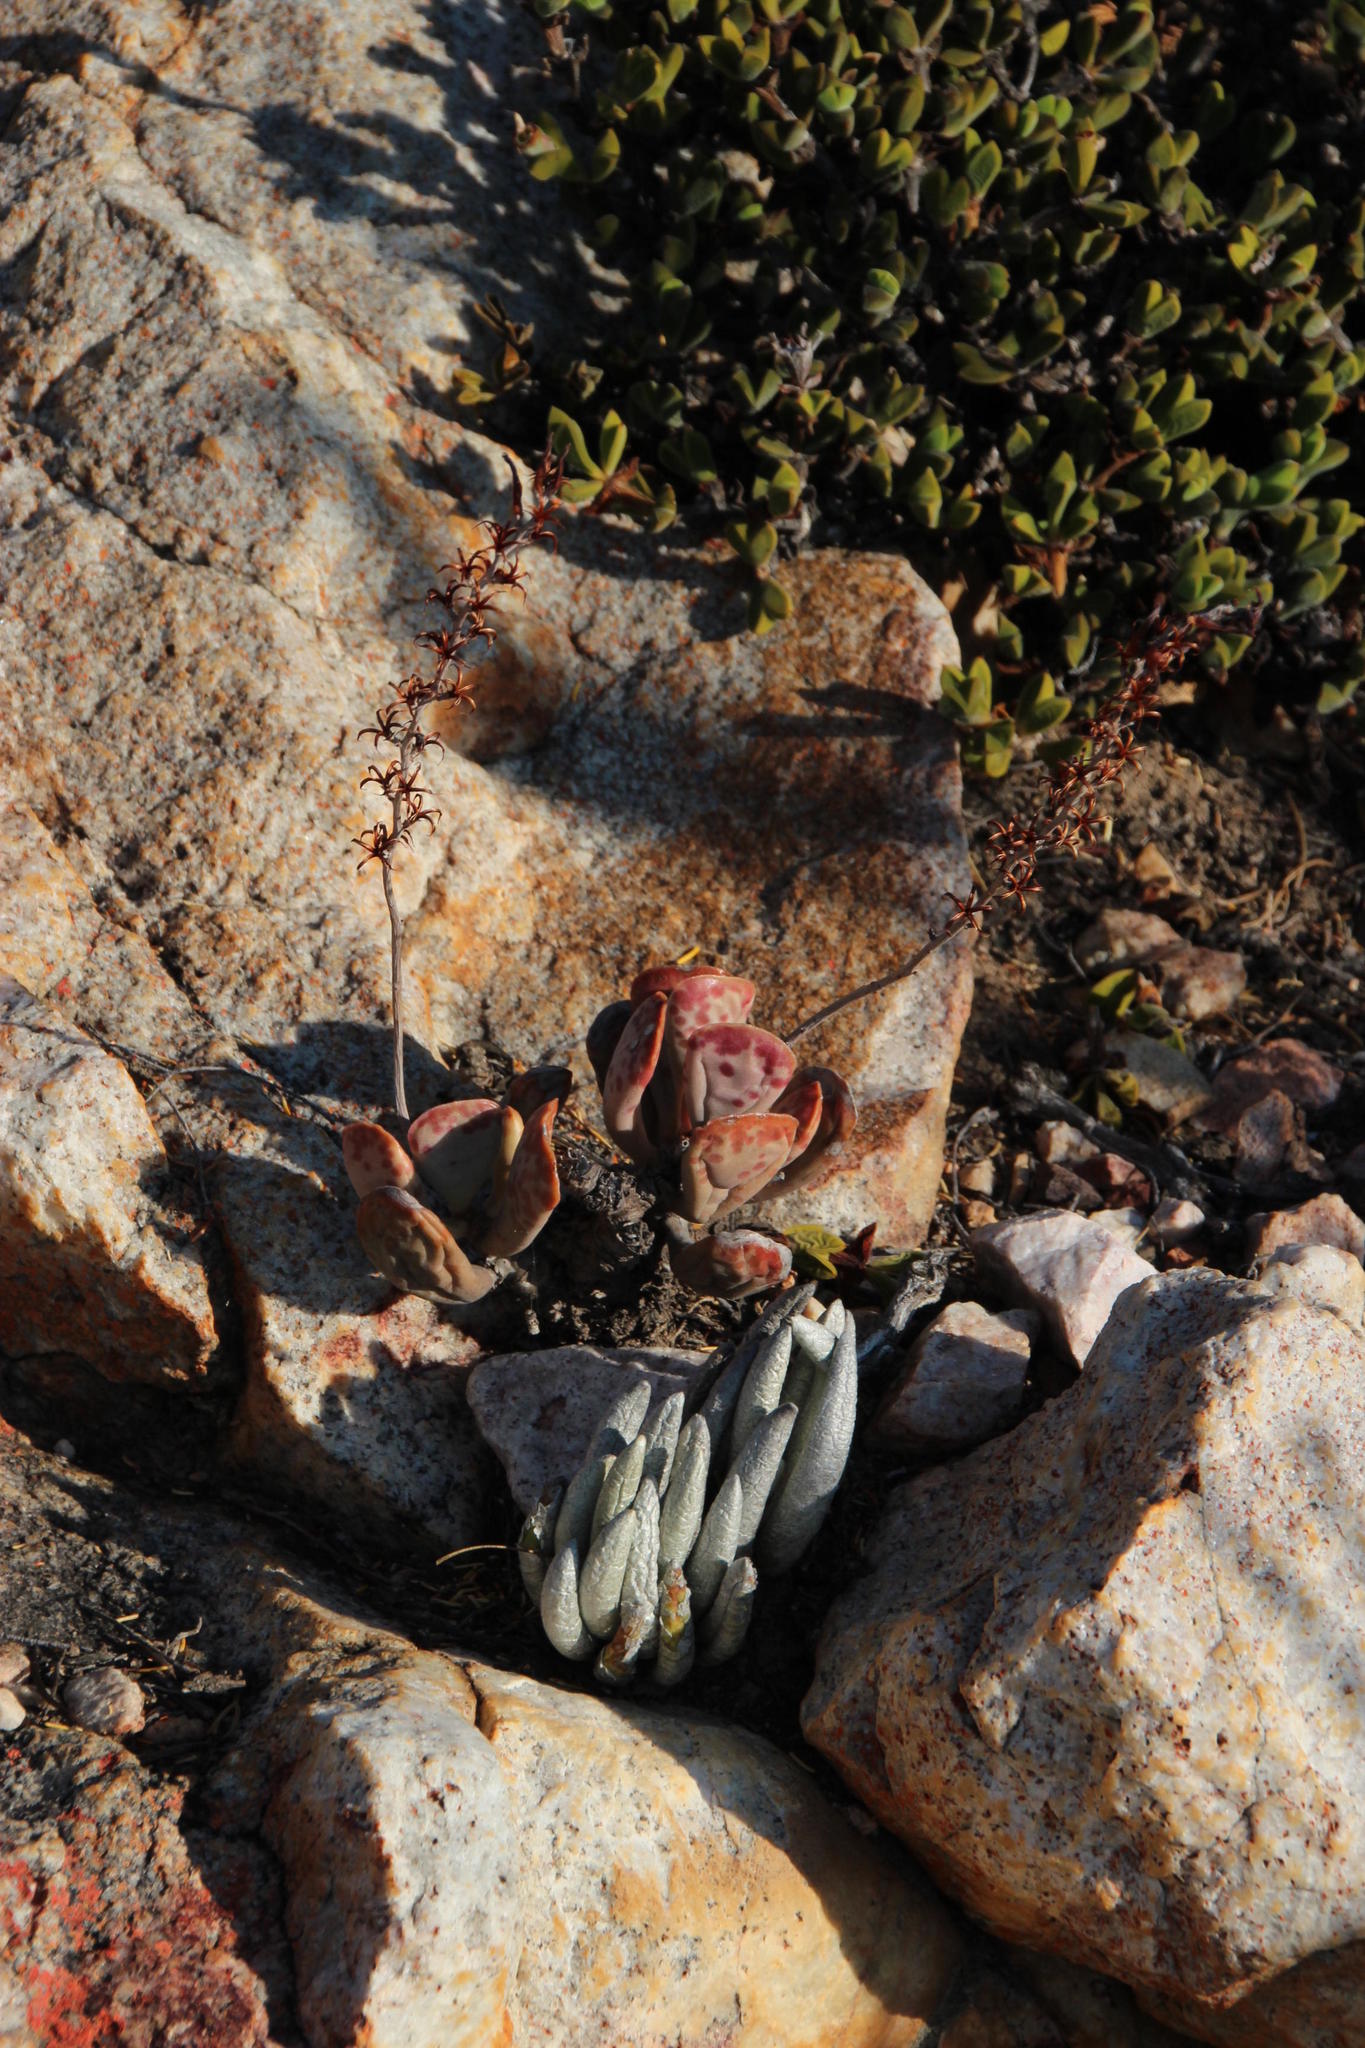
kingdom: Plantae
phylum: Tracheophyta
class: Magnoliopsida
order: Saxifragales
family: Crassulaceae
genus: Adromischus
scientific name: Adromischus triflorus
